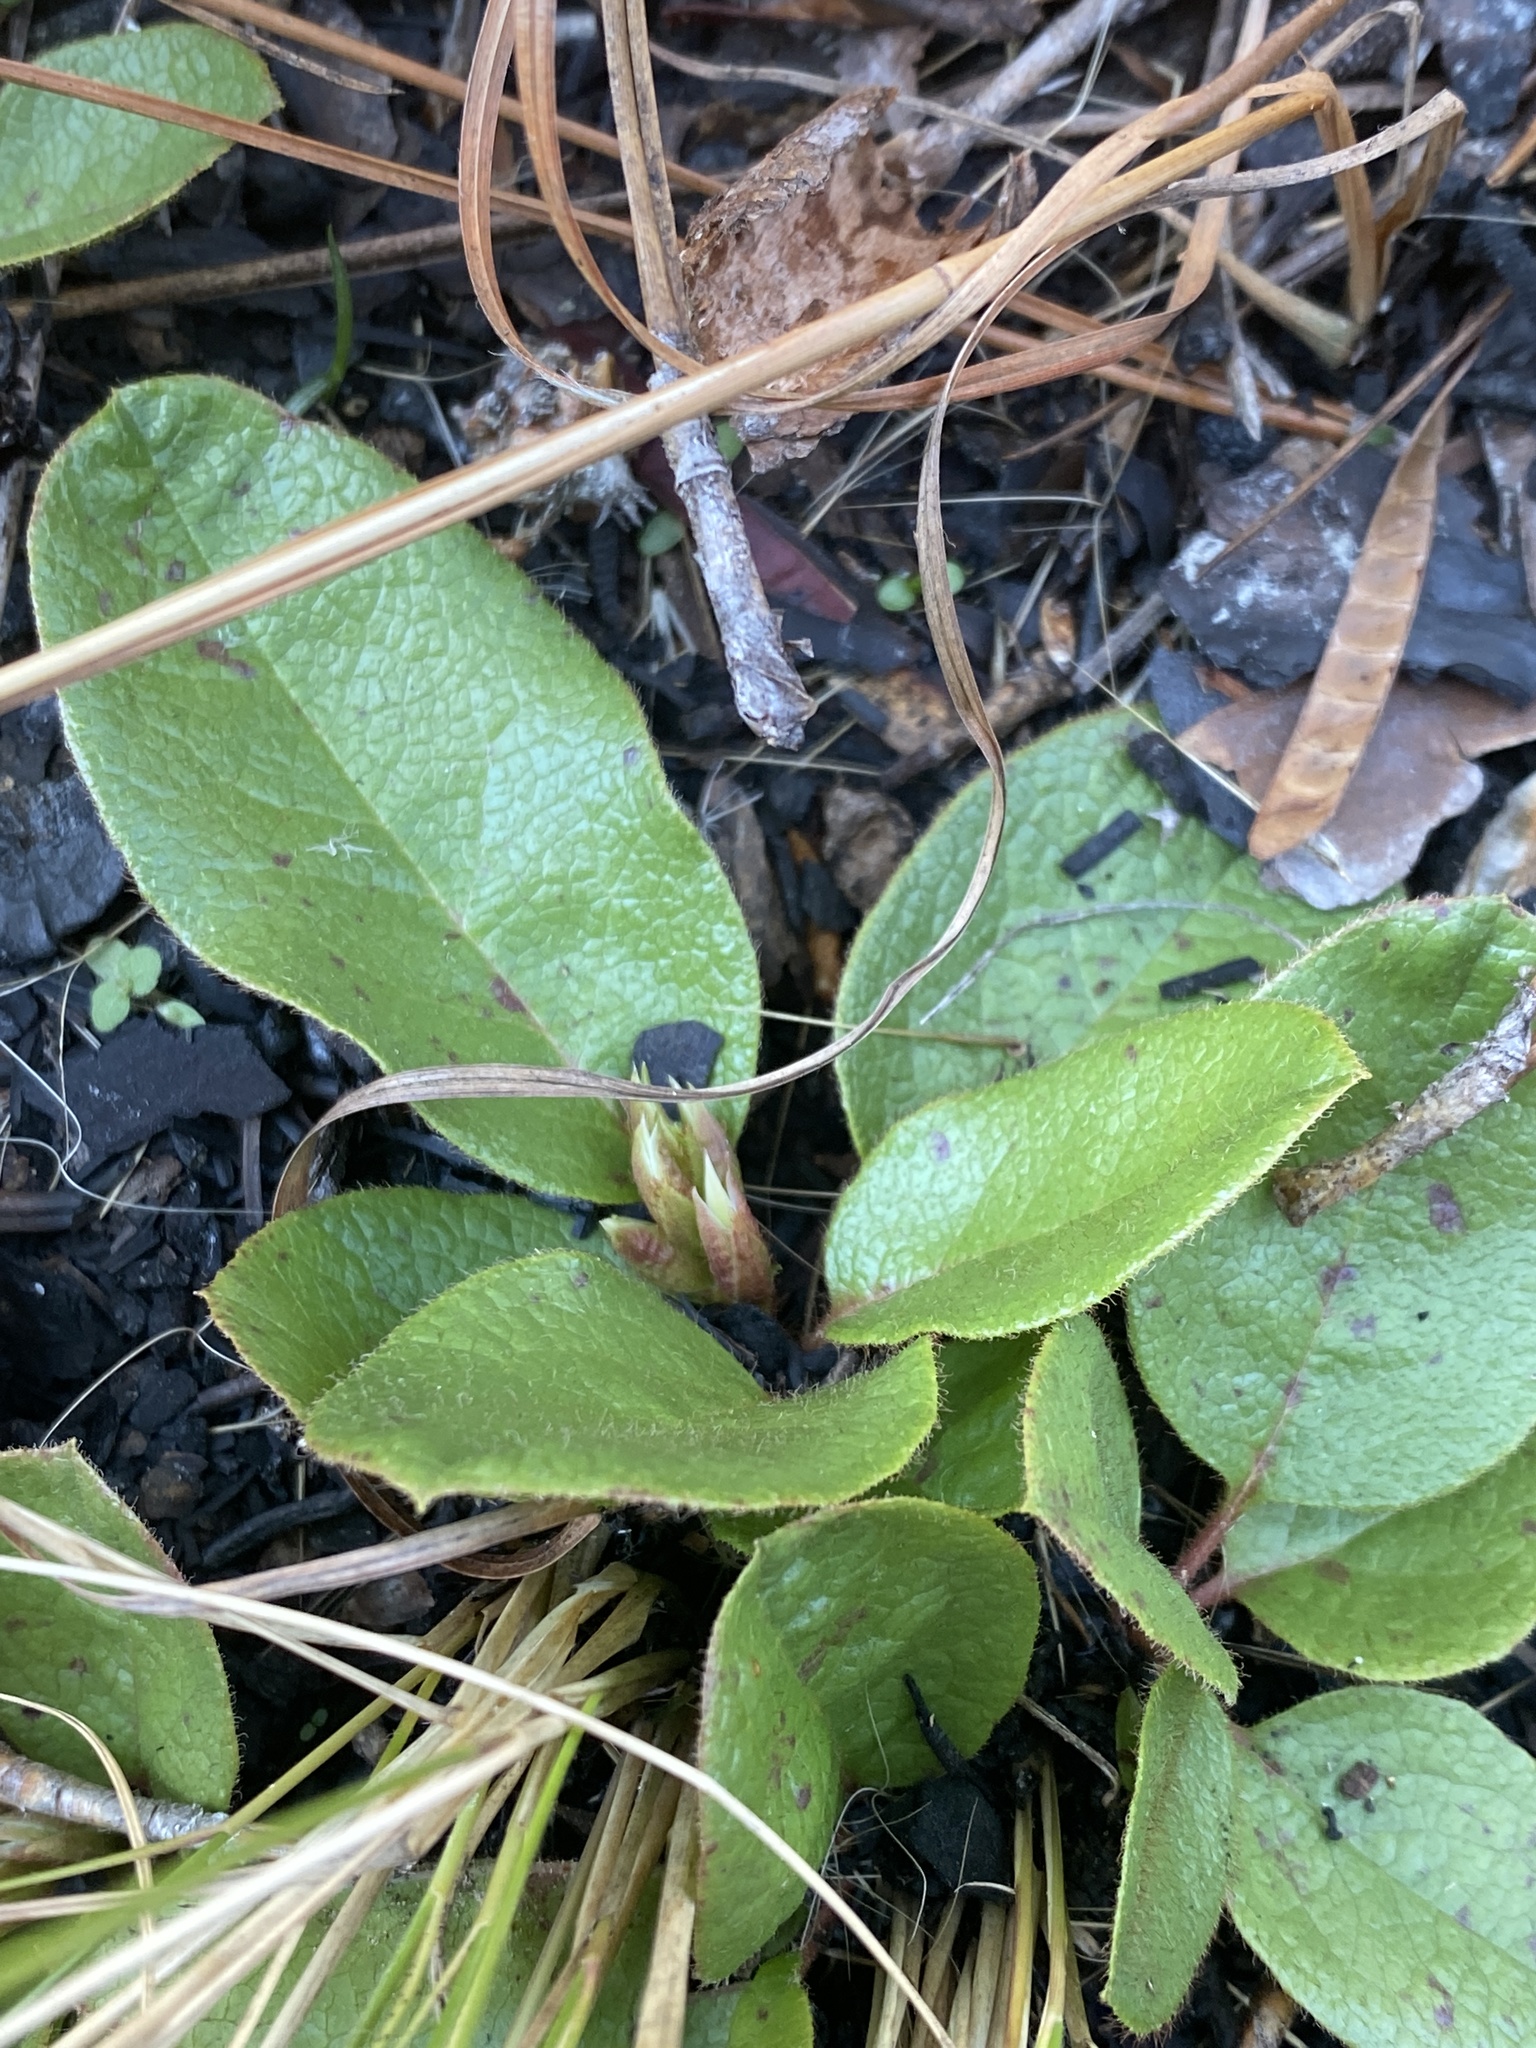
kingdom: Plantae
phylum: Tracheophyta
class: Magnoliopsida
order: Ericales
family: Ericaceae
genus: Epigaea
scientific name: Epigaea repens
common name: Gravelroot
